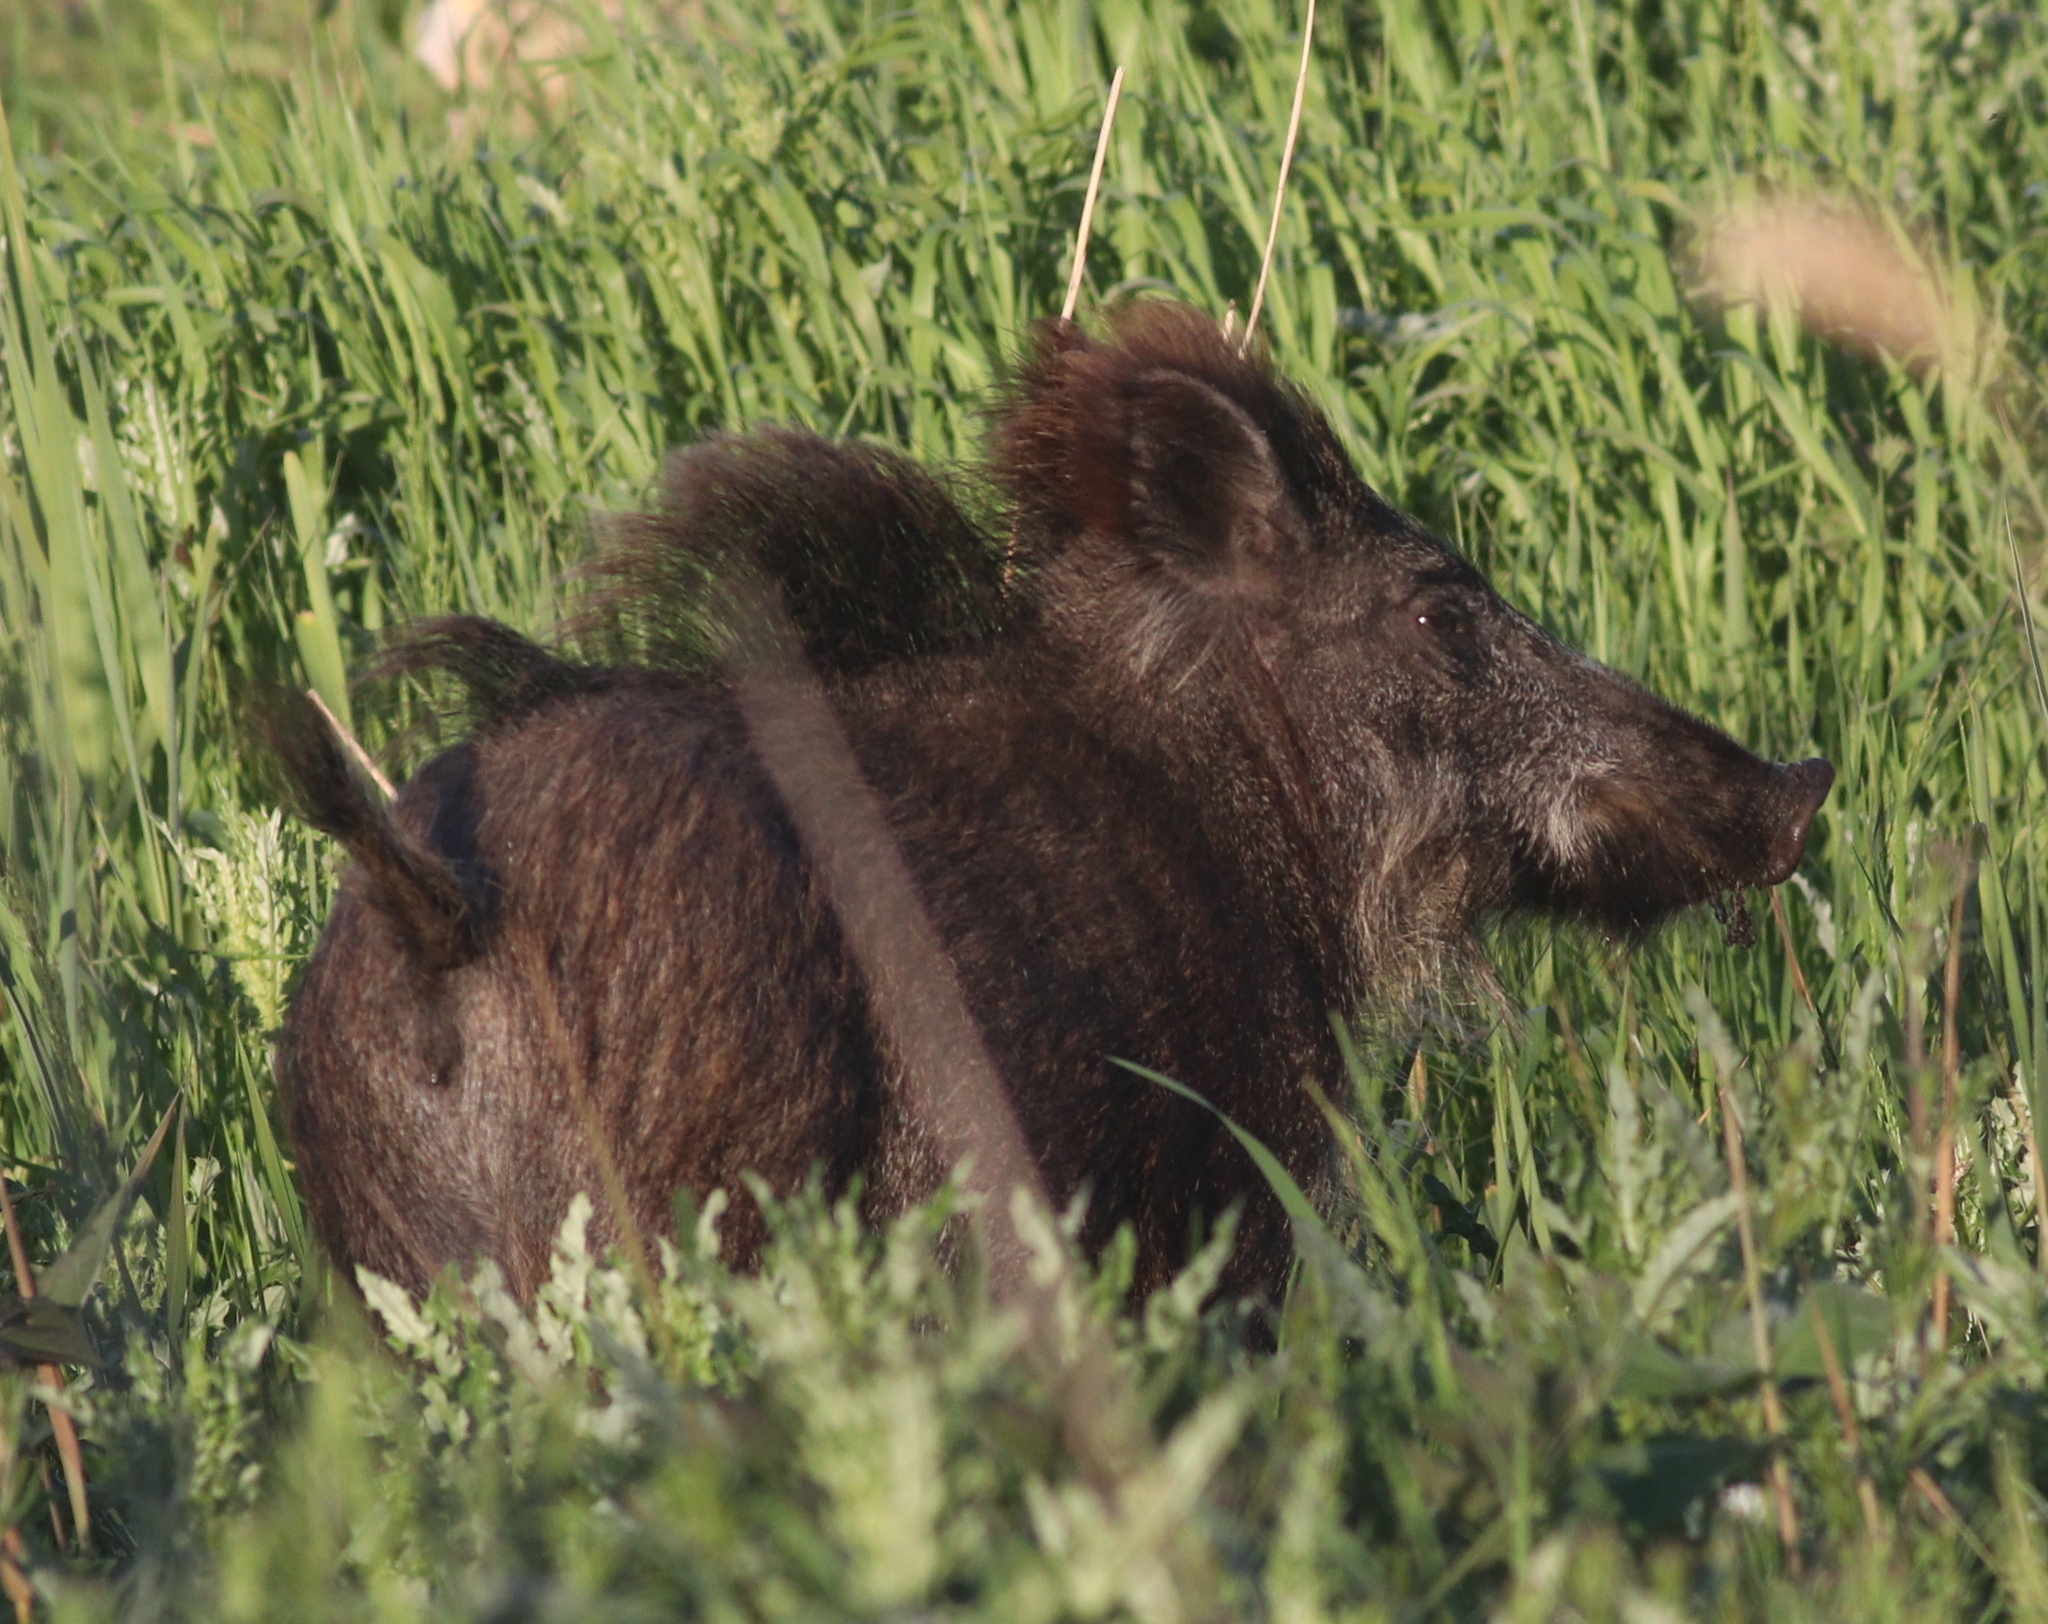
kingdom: Animalia
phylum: Chordata
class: Mammalia
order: Artiodactyla
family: Suidae
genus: Sus
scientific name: Sus scrofa
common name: Wild boar
